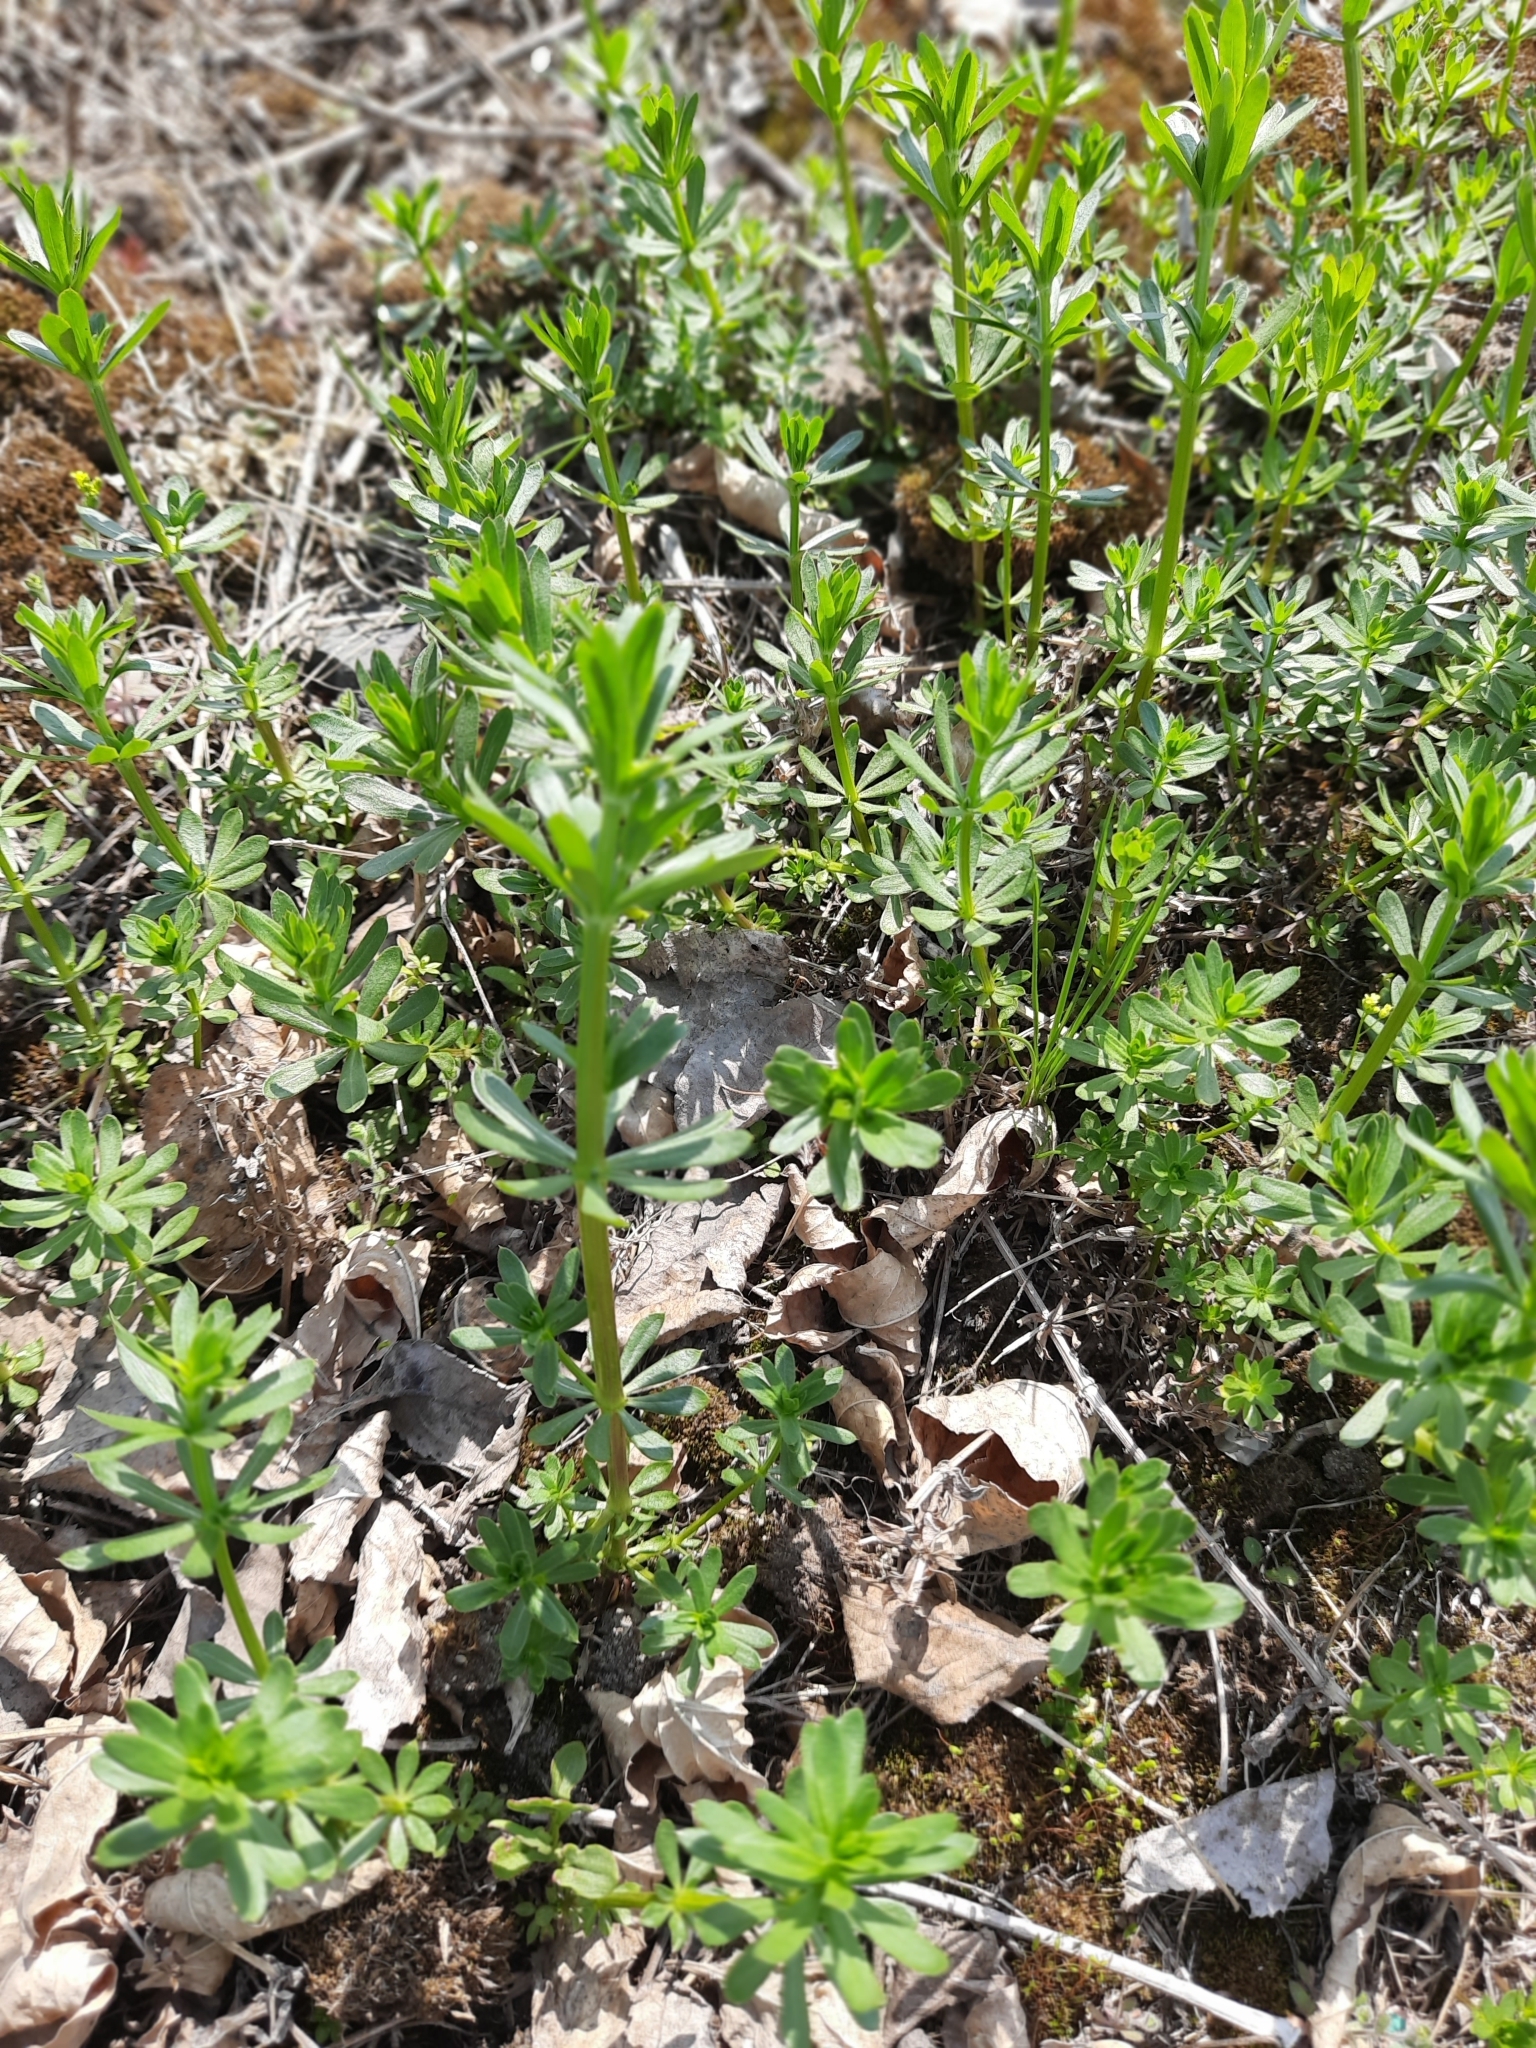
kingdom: Plantae
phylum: Tracheophyta
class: Magnoliopsida
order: Gentianales
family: Rubiaceae
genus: Galium
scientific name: Galium mollugo
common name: Hedge bedstraw
